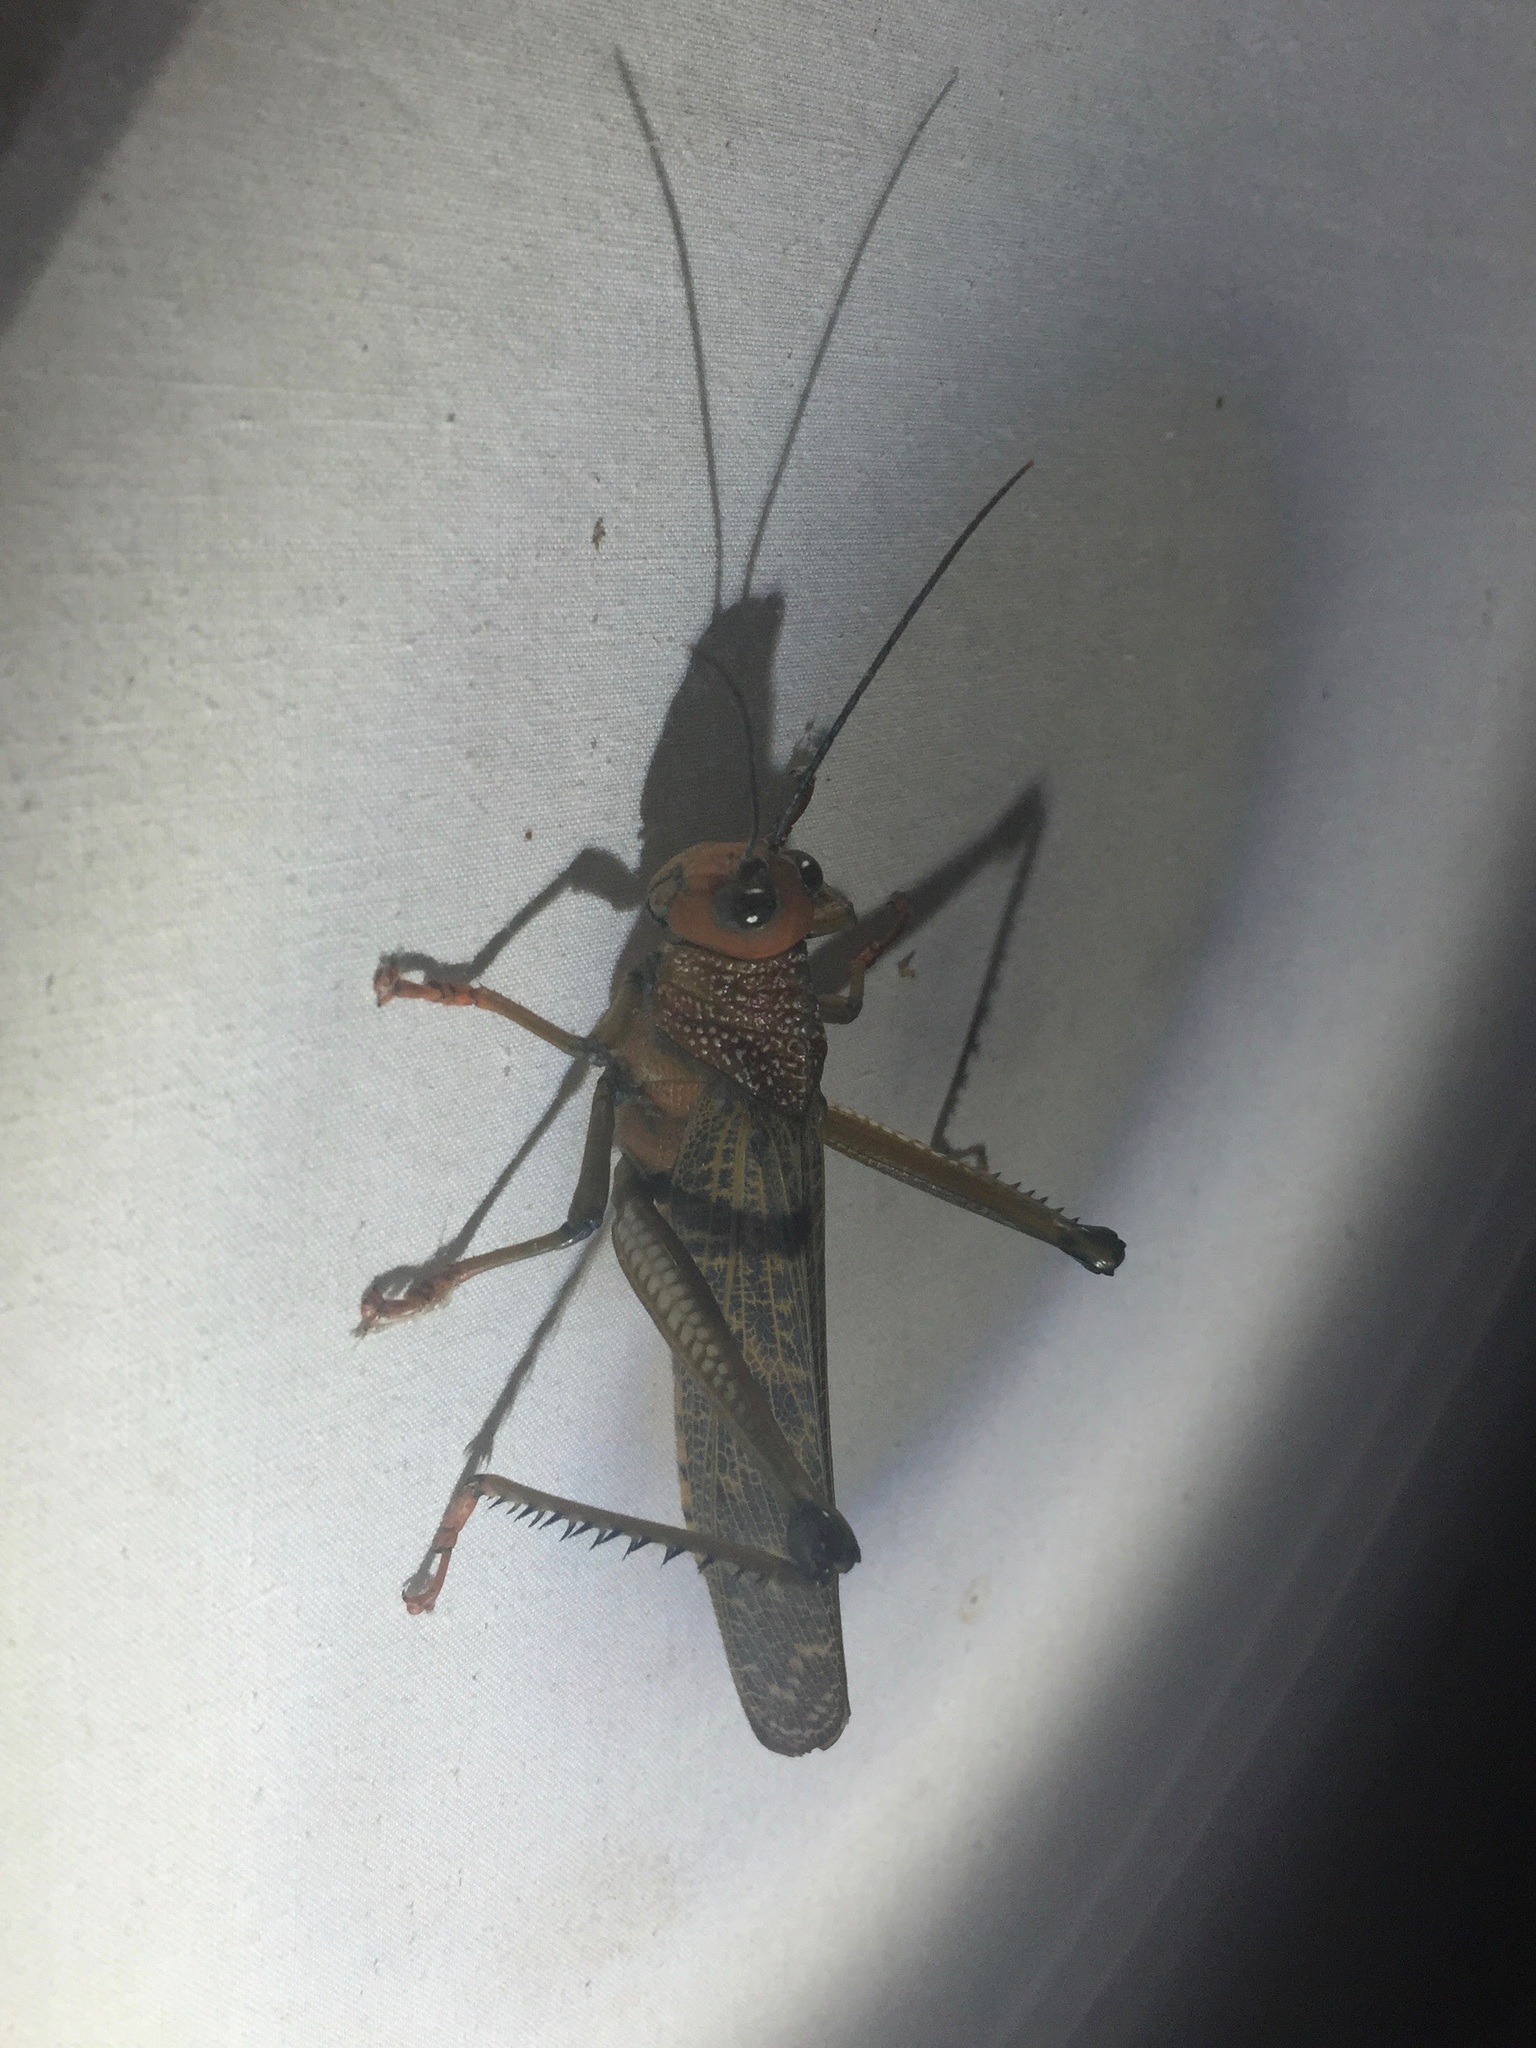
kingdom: Animalia
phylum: Arthropoda
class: Insecta
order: Orthoptera
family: Romaleidae
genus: Tropidacris
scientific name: Tropidacris cristata
